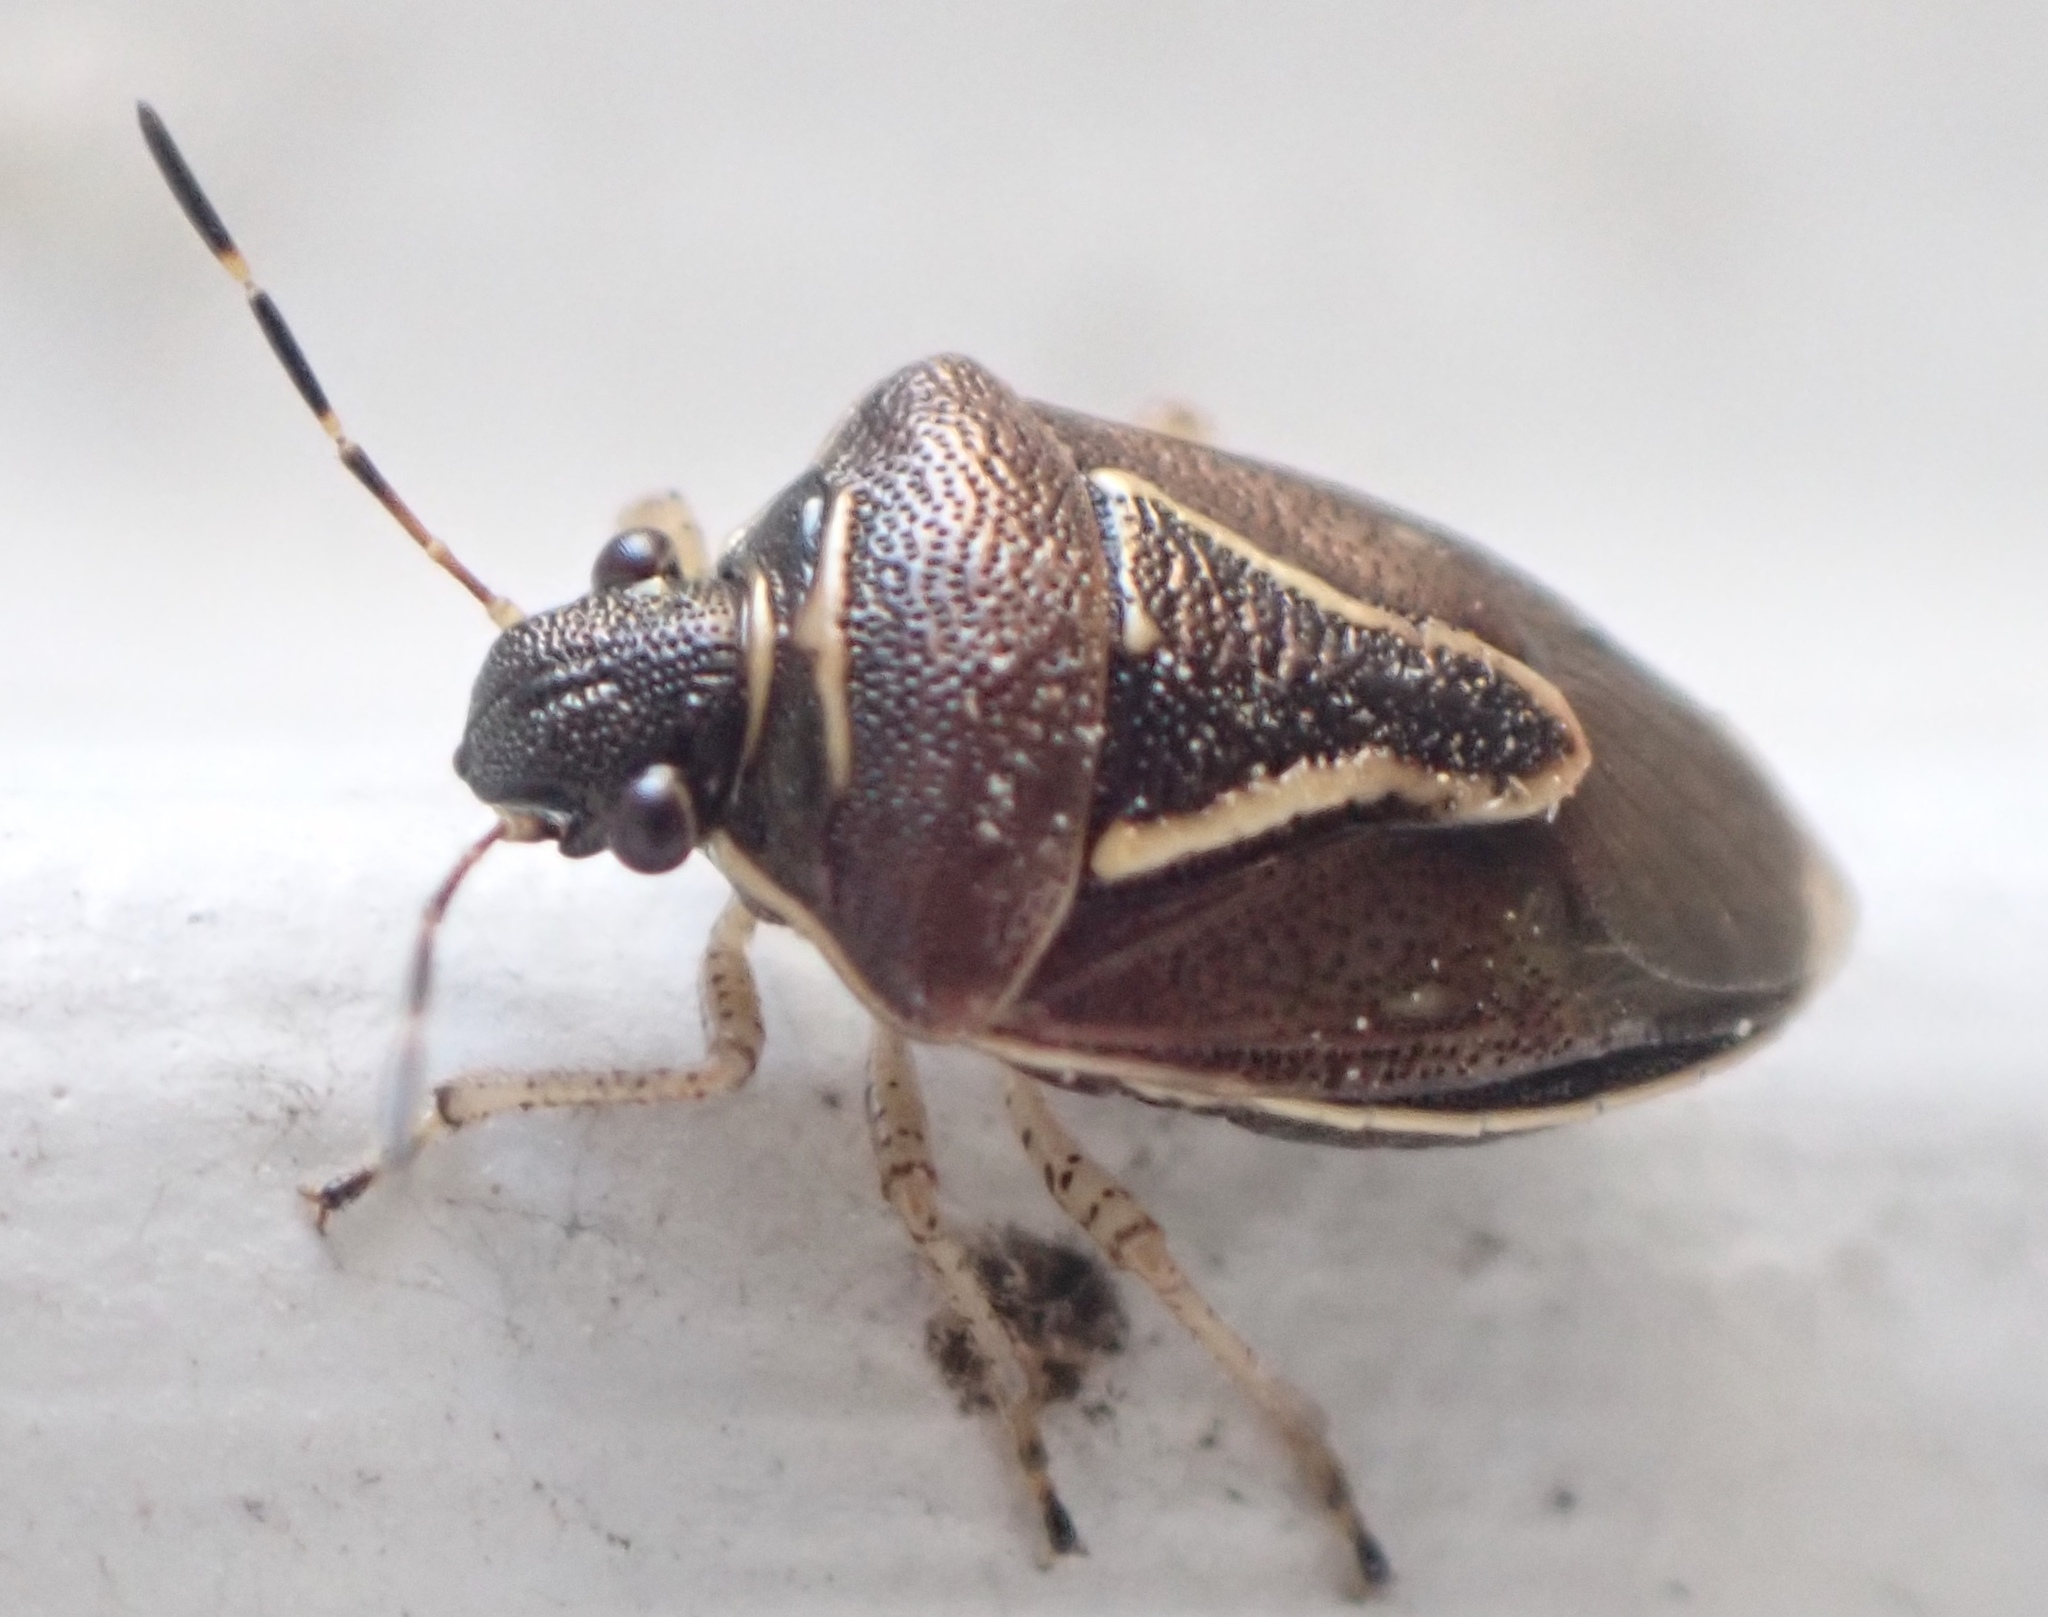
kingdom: Animalia
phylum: Arthropoda
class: Insecta
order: Hemiptera
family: Pentatomidae
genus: Mormidea
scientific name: Mormidea lugens
